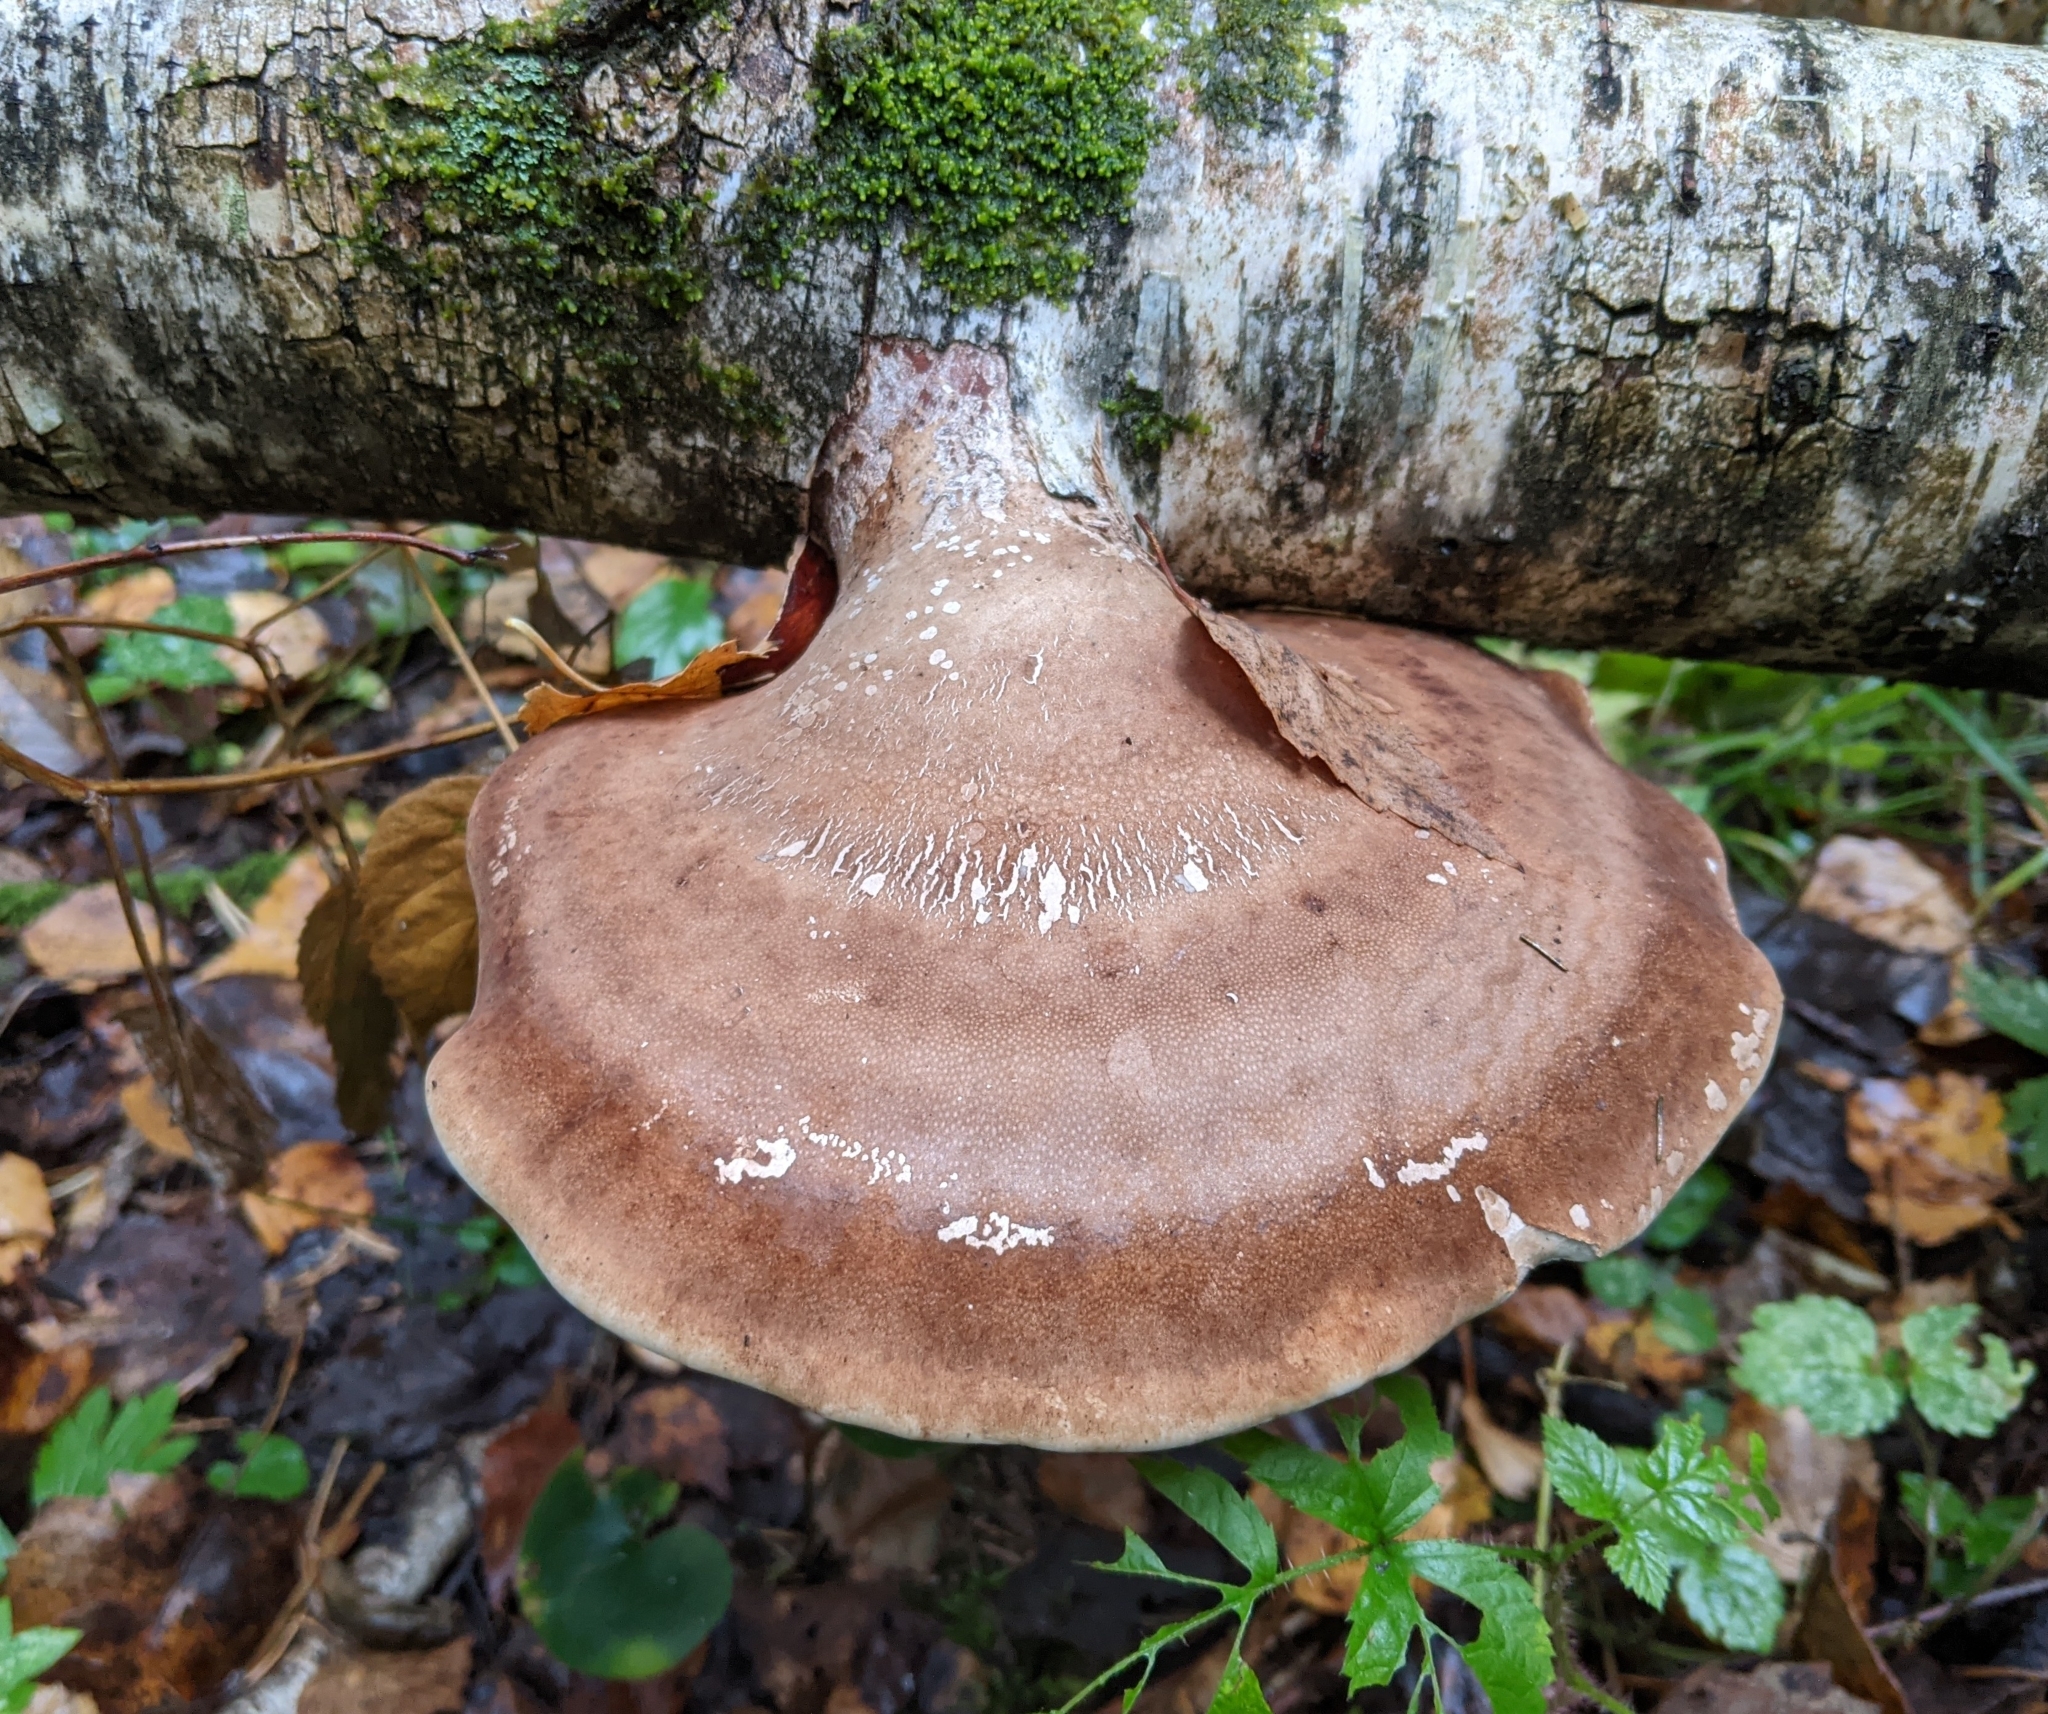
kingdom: Fungi
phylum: Basidiomycota
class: Agaricomycetes
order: Polyporales
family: Fomitopsidaceae
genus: Fomitopsis
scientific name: Fomitopsis betulina
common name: Birch polypore
